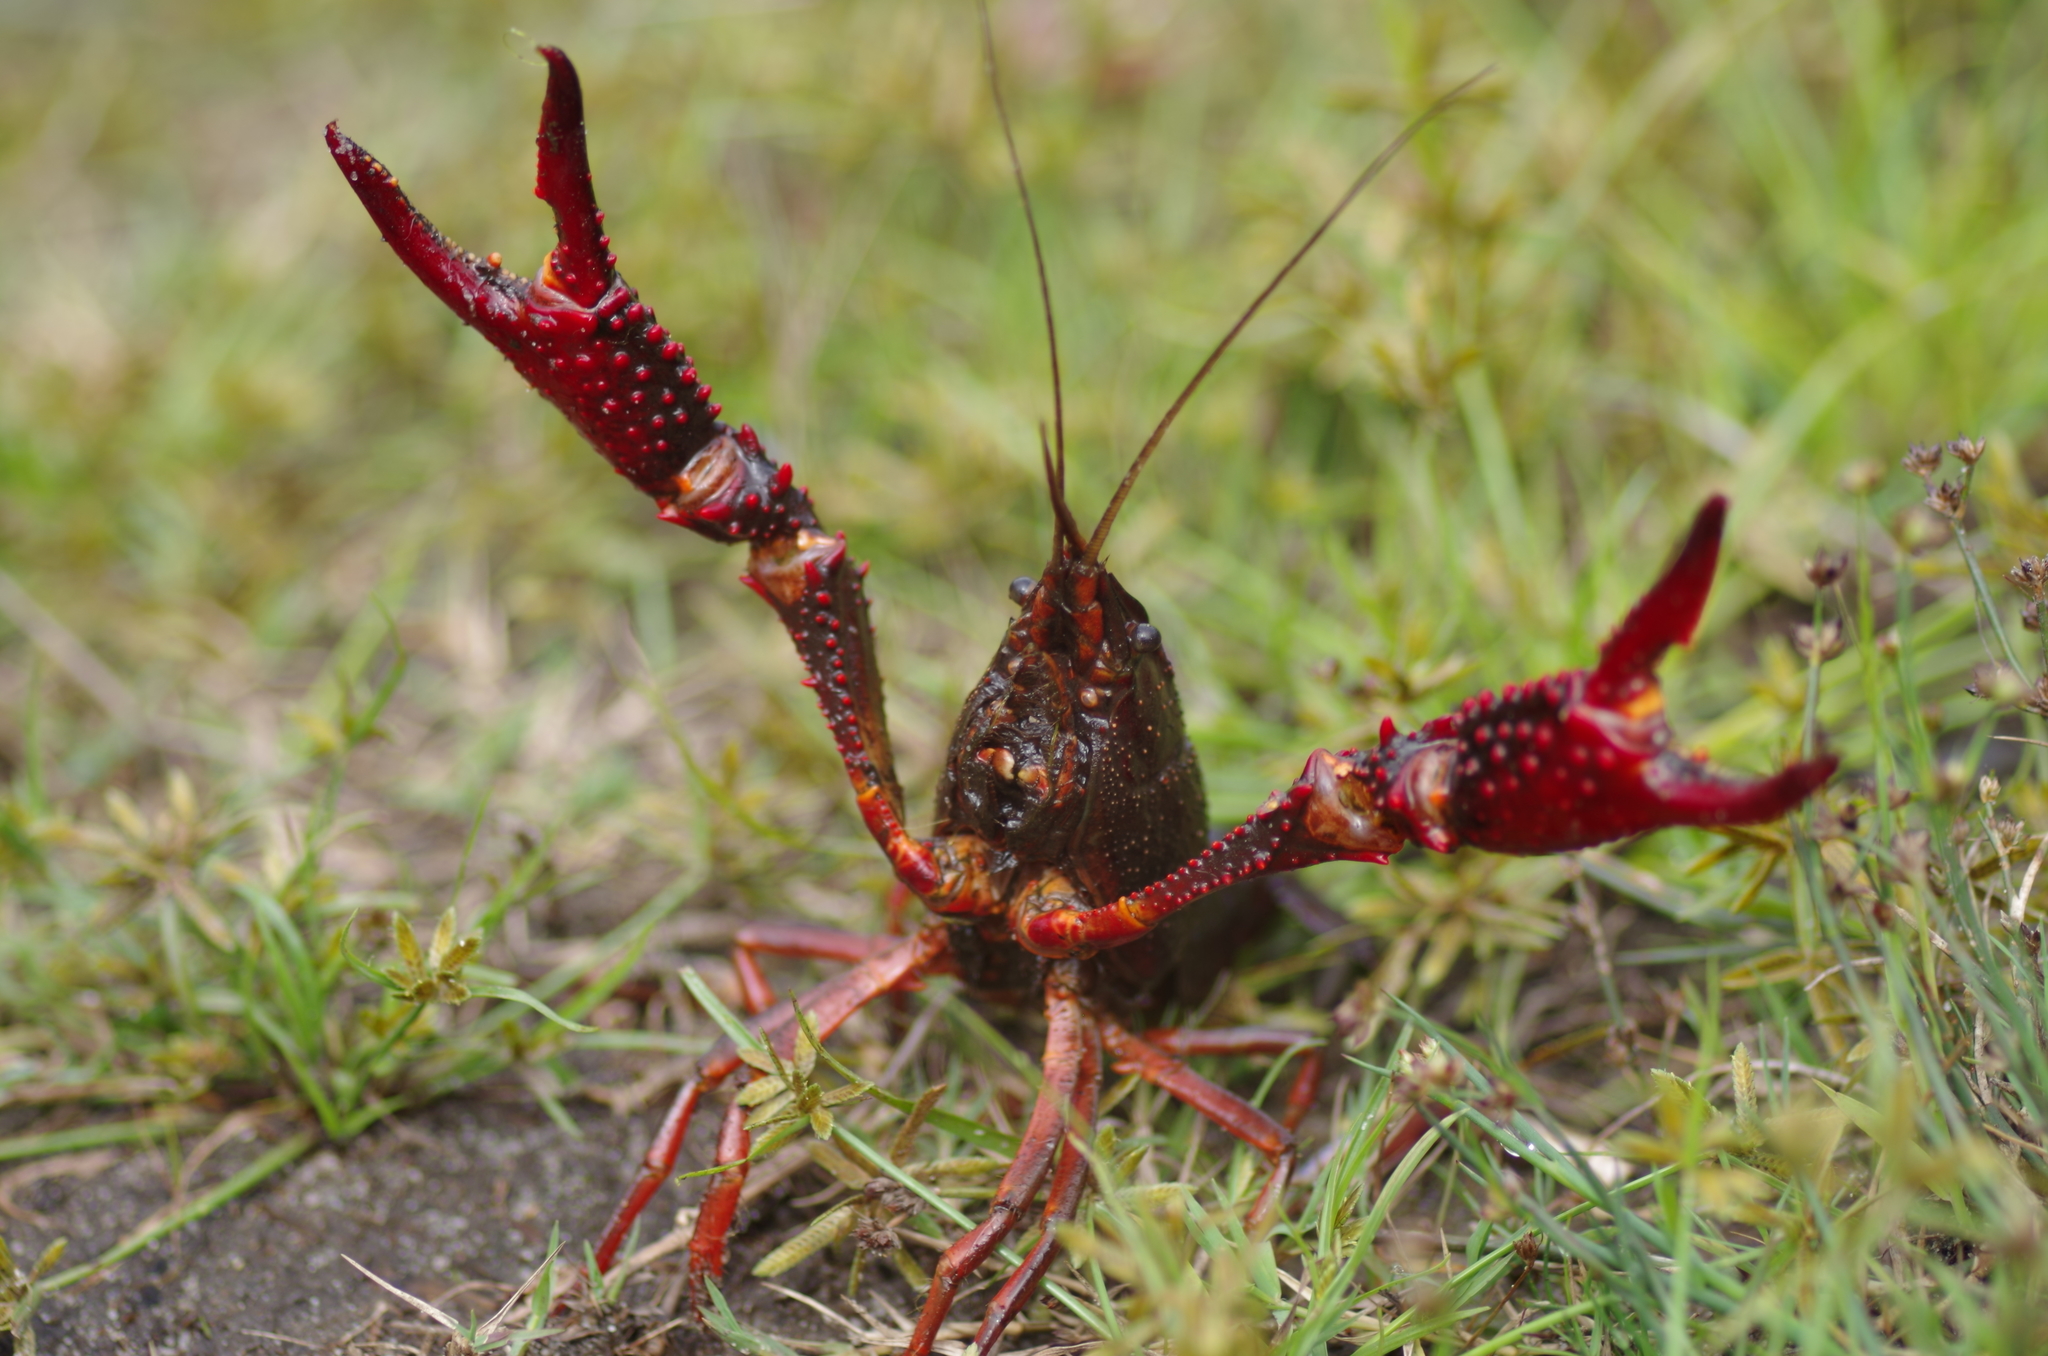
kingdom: Animalia
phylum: Arthropoda
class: Malacostraca
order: Decapoda
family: Cambaridae
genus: Procambarus
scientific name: Procambarus clarkii
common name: Red swamp crayfish
